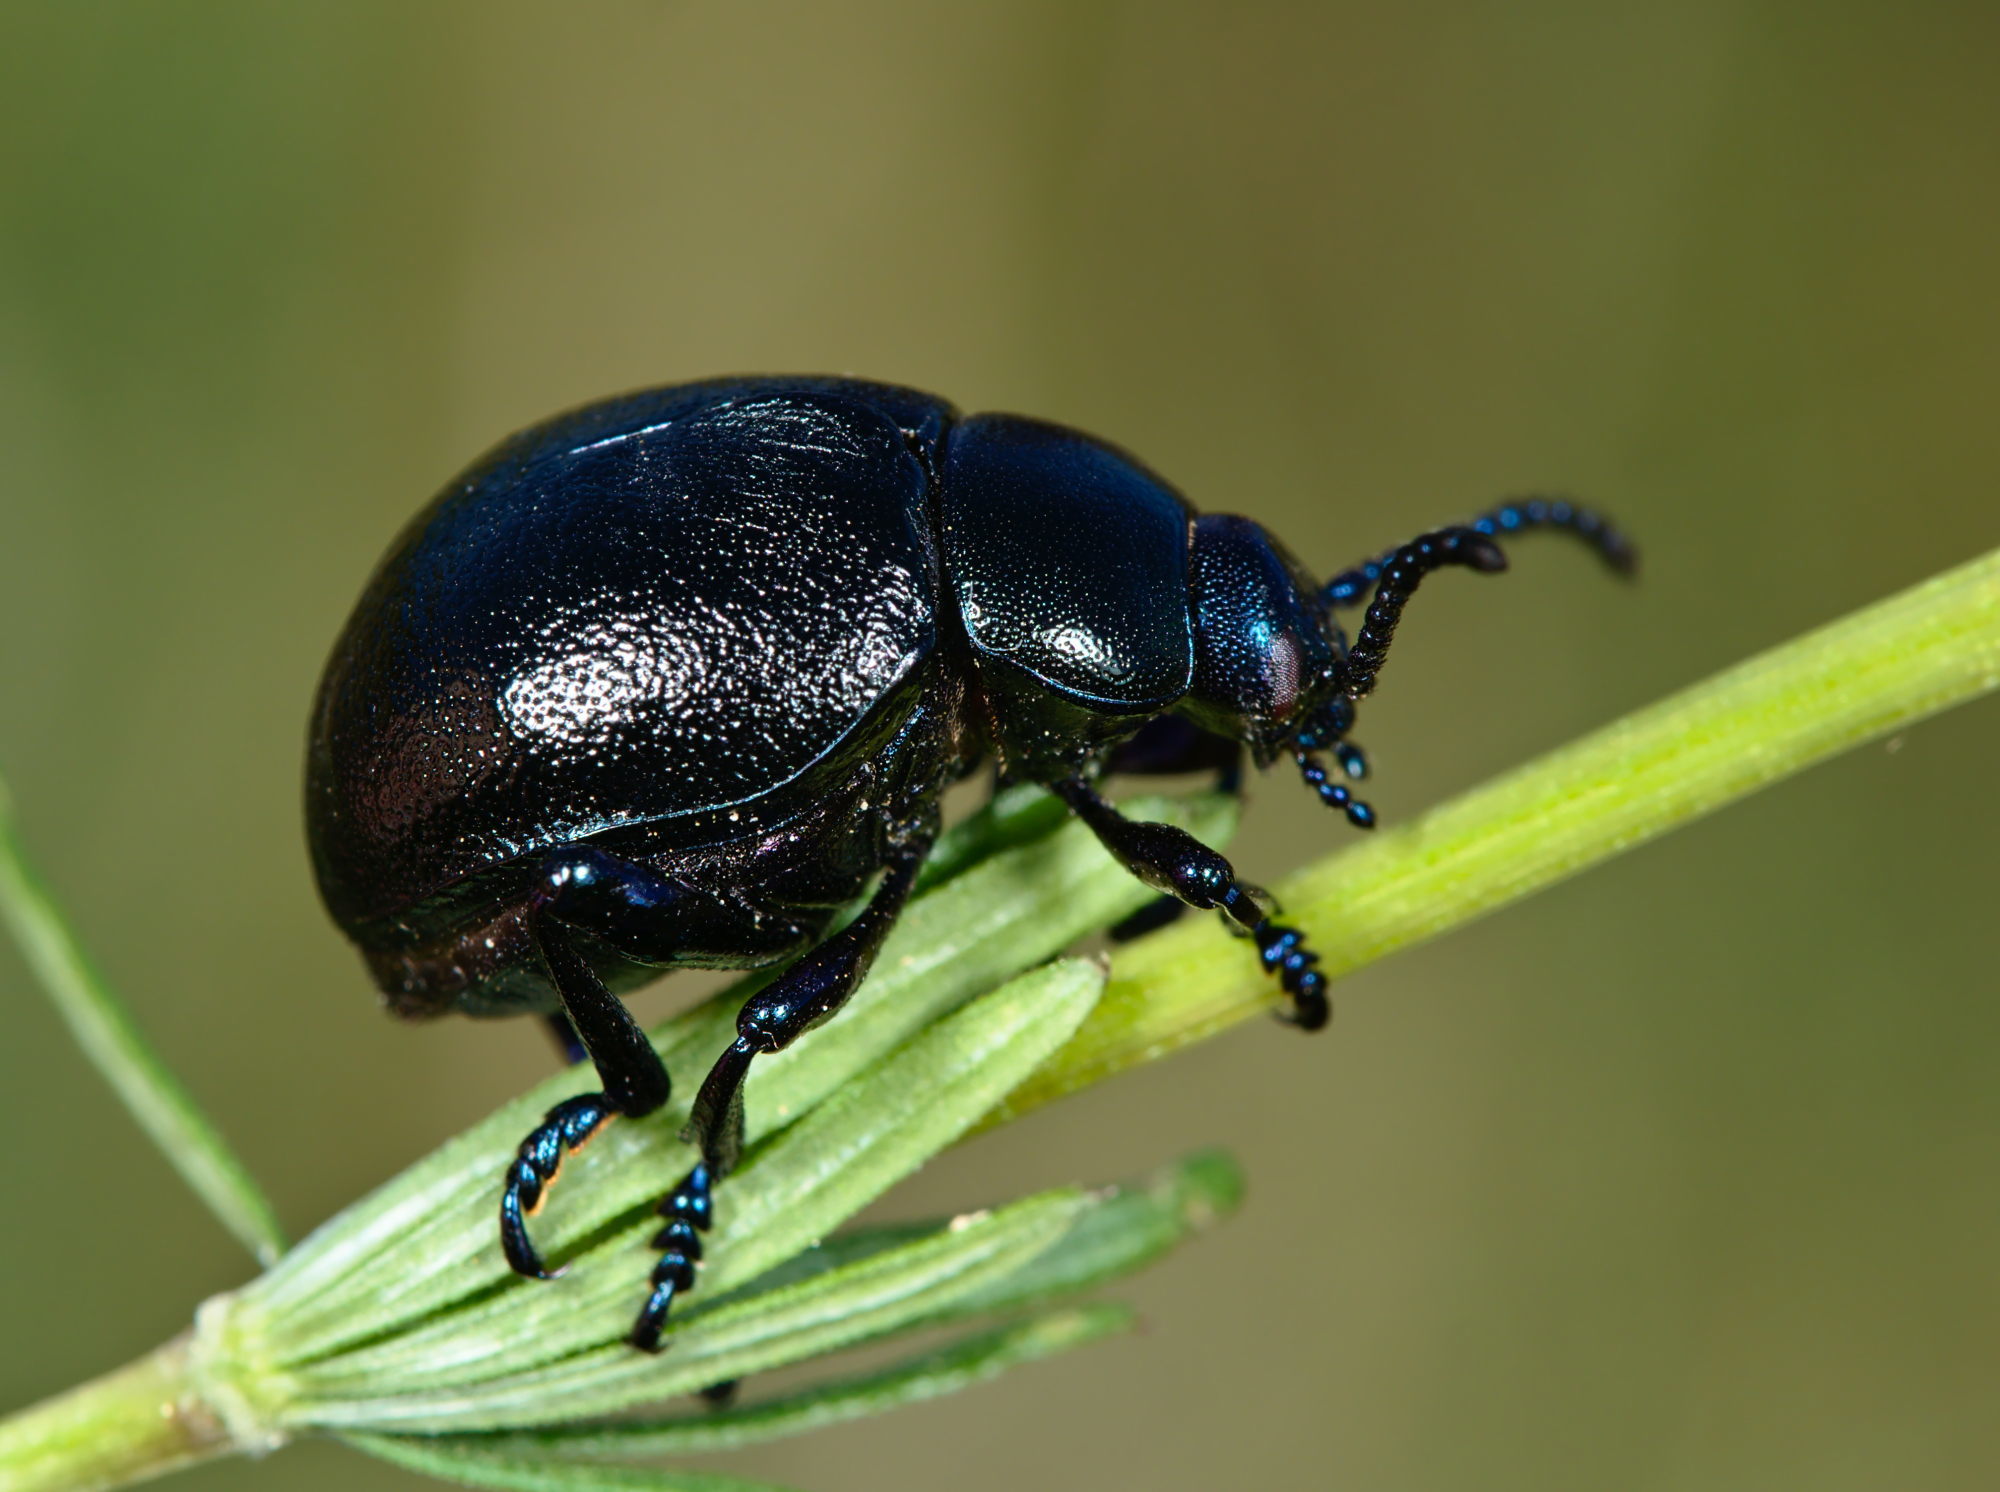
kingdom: Animalia
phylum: Arthropoda
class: Insecta
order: Coleoptera
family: Chrysomelidae
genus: Timarcha
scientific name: Timarcha goettingensis
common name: Small bloody-nosed beetle
